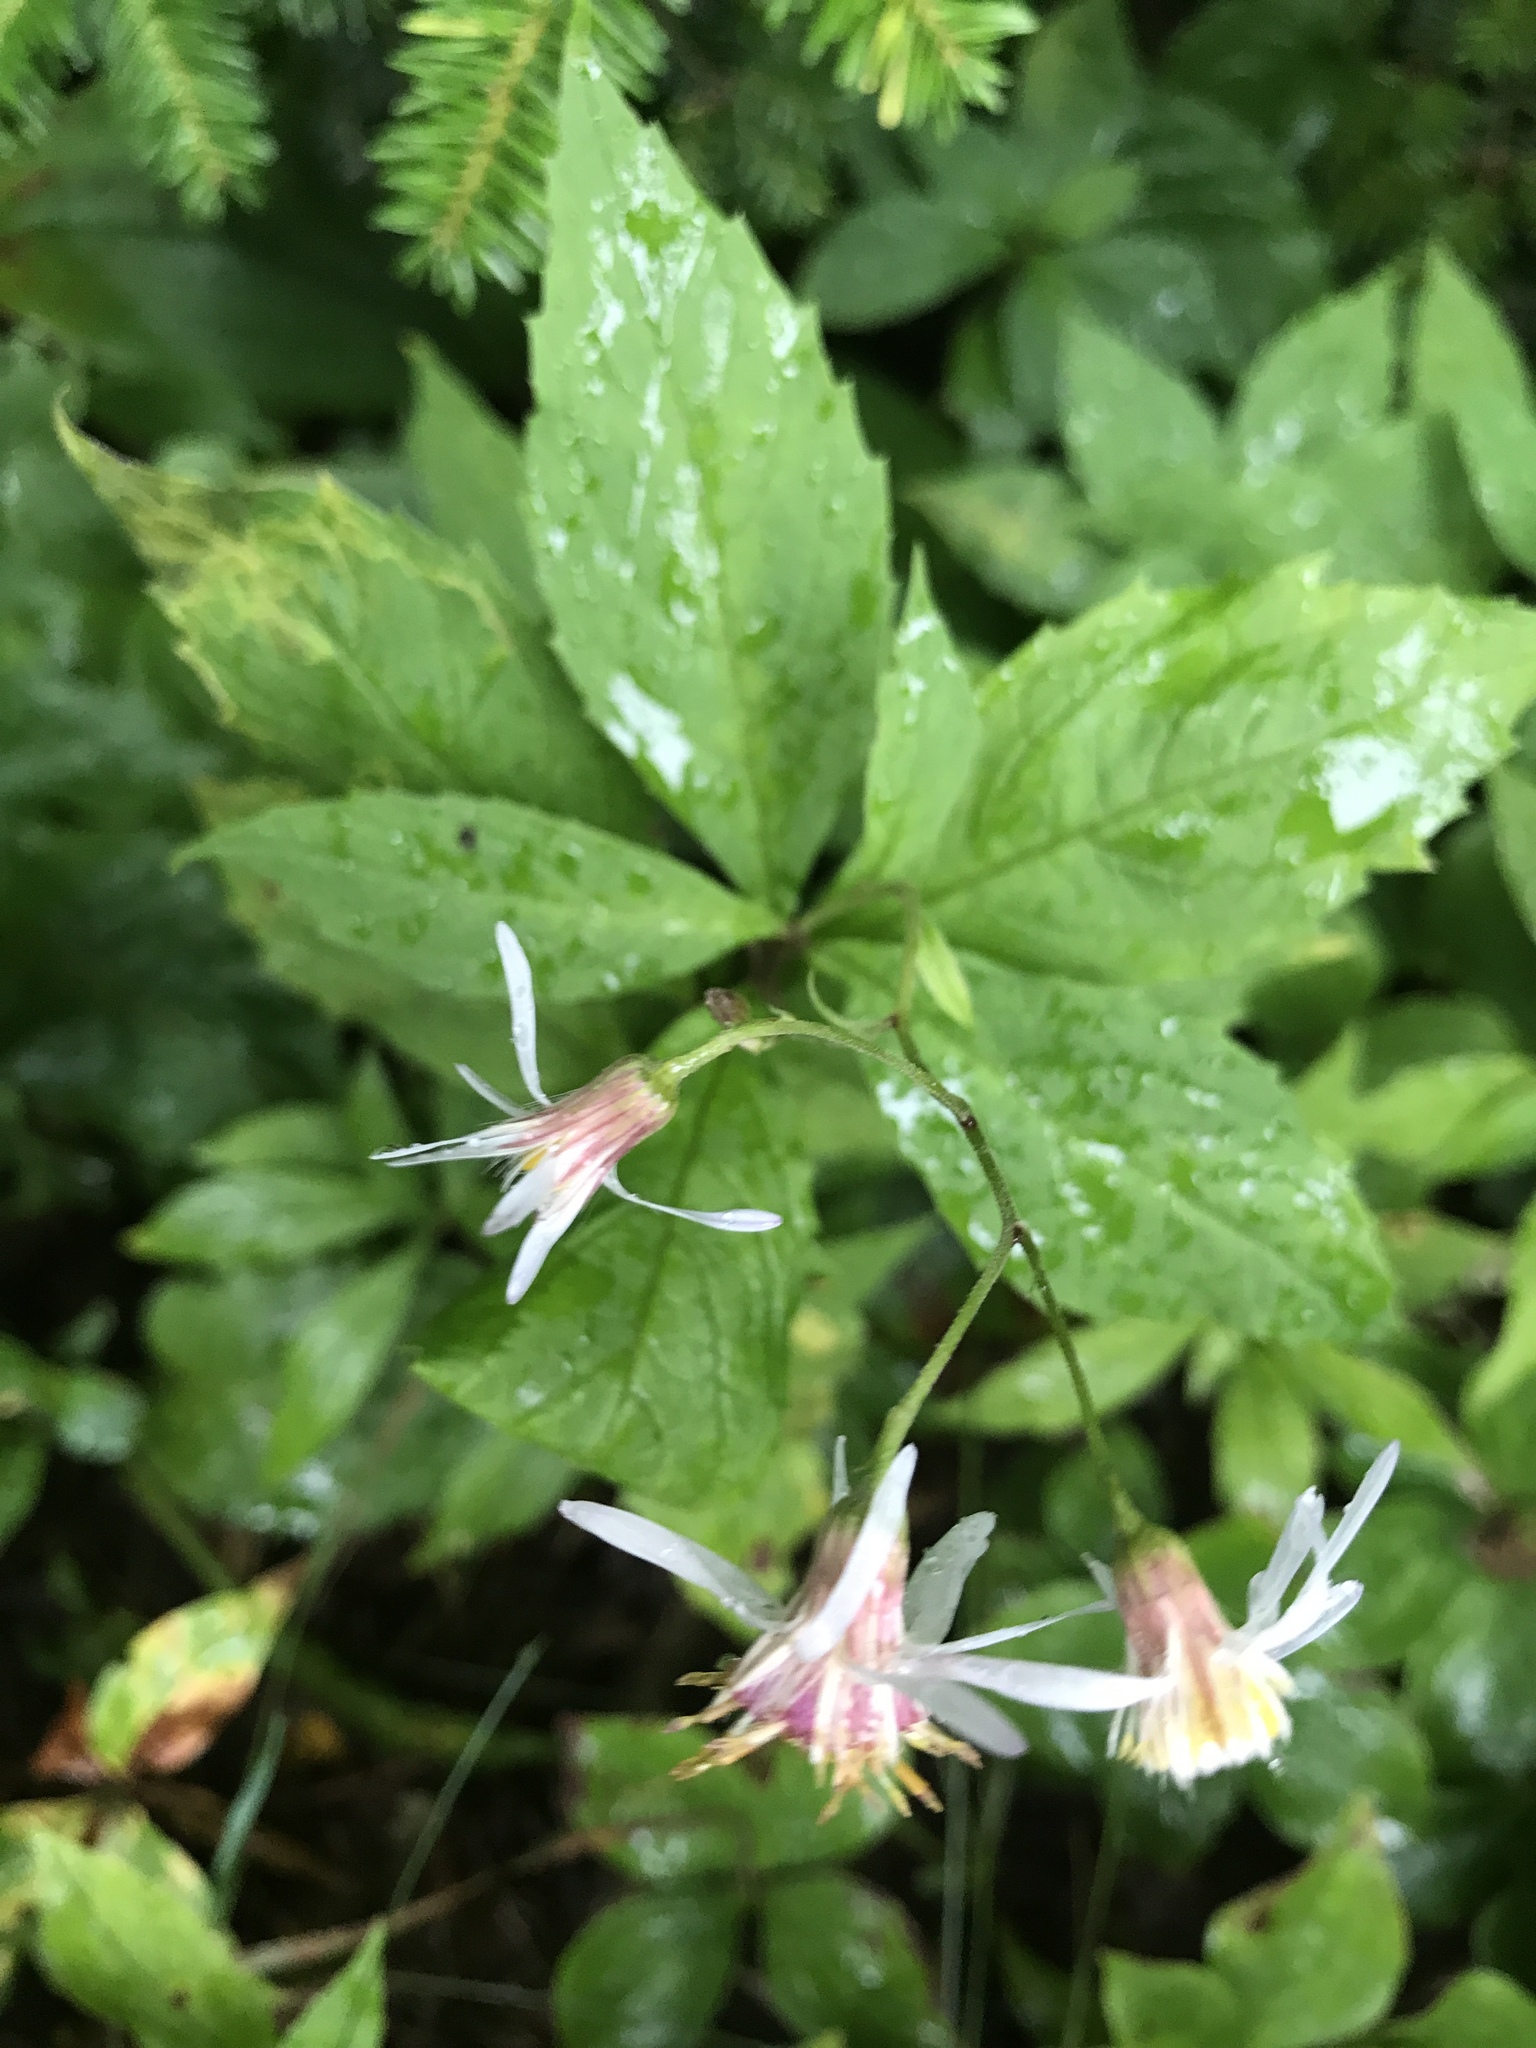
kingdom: Plantae
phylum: Tracheophyta
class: Magnoliopsida
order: Asterales
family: Asteraceae
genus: Oclemena
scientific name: Oclemena acuminata
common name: Mountain aster
